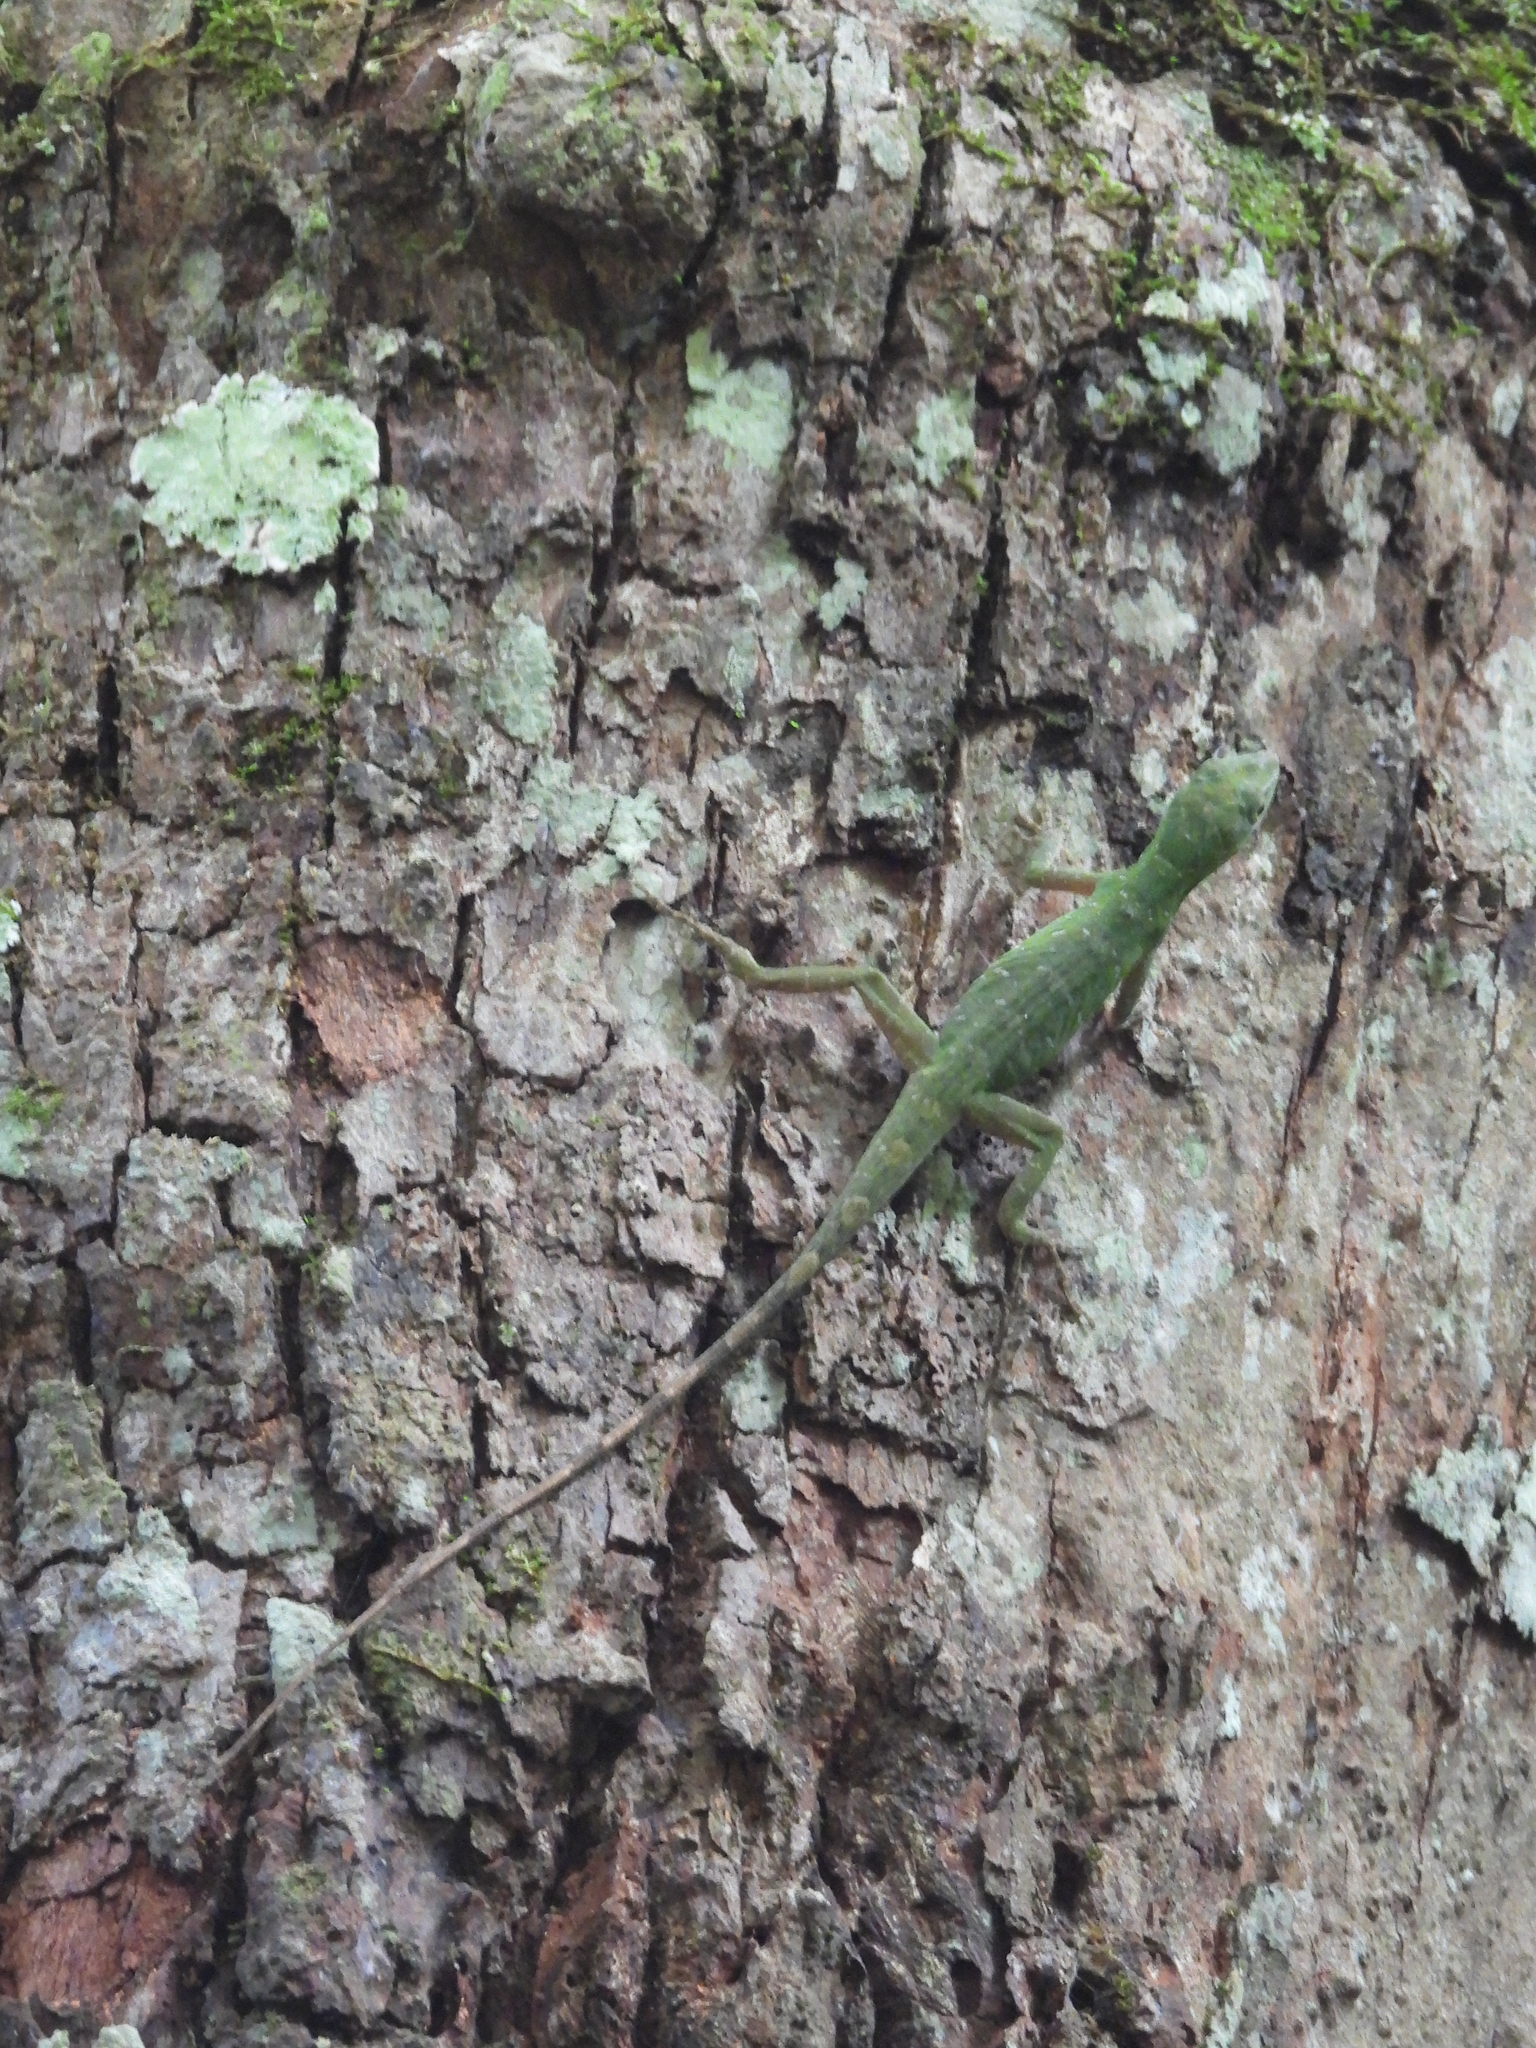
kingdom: Animalia
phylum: Chordata
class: Squamata
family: Dactyloidae
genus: Anolis
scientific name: Anolis punctatus
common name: Amazon green anole
